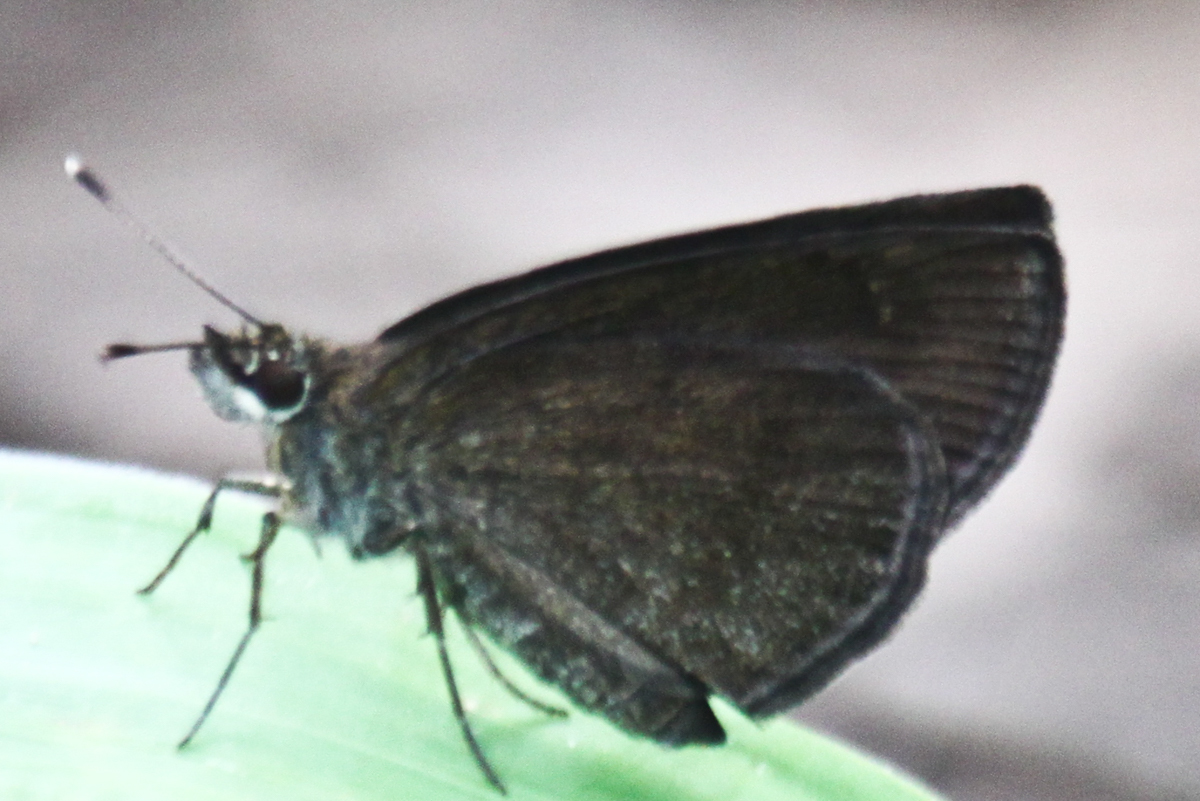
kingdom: Animalia
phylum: Arthropoda
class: Insecta
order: Lepidoptera
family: Hesperiidae
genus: Astictopterus
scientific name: Astictopterus jama
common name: Forest hopper
